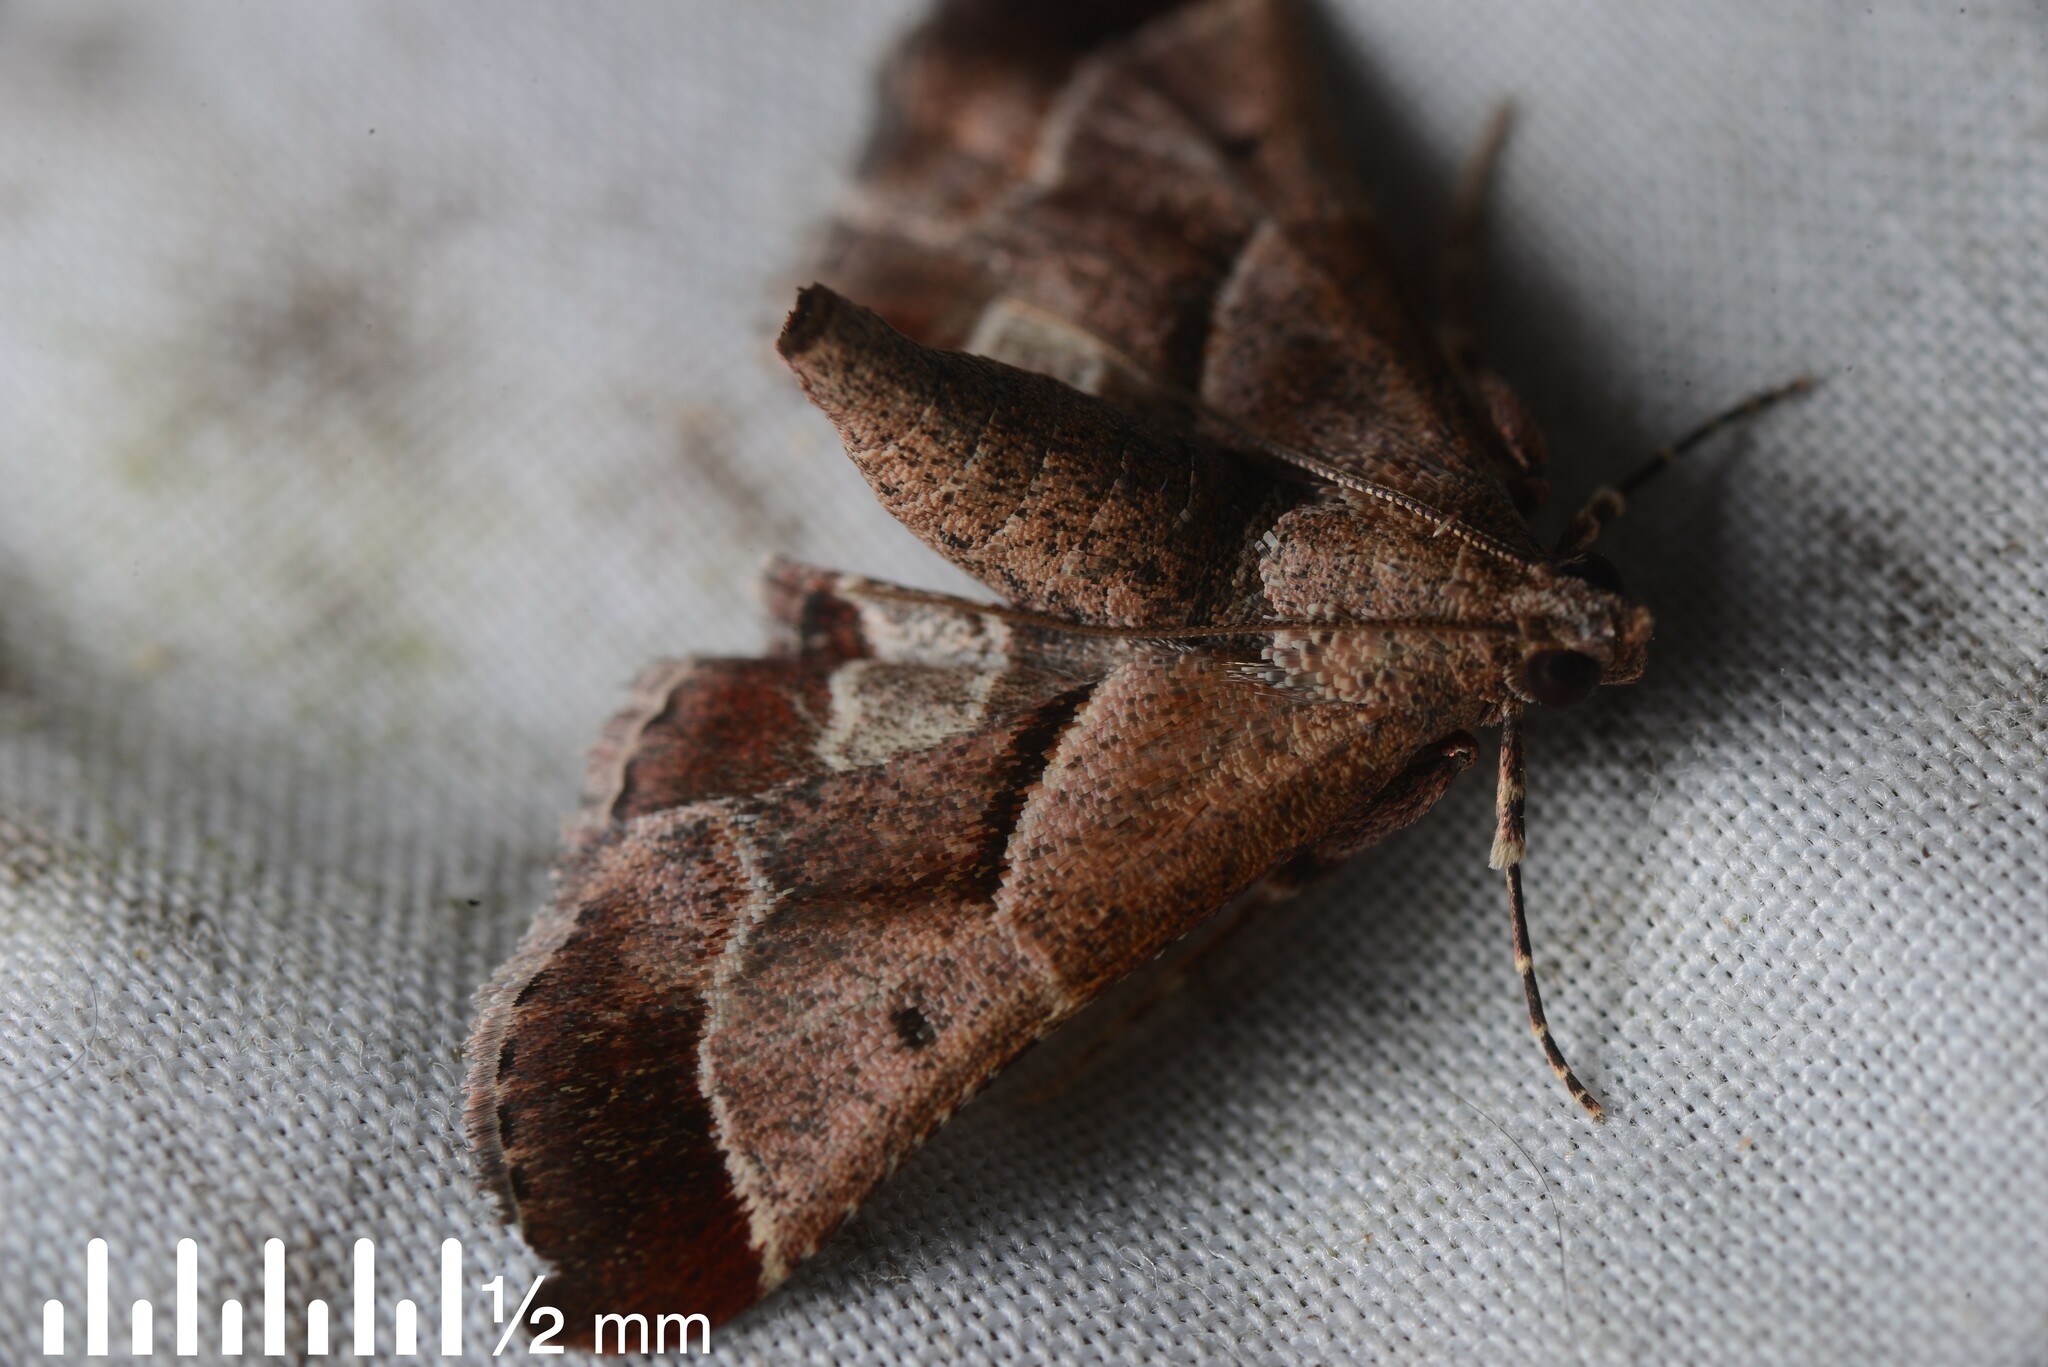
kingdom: Animalia
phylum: Arthropoda
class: Insecta
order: Lepidoptera
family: Pyralidae
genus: Gauna
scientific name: Gauna aegusalis
